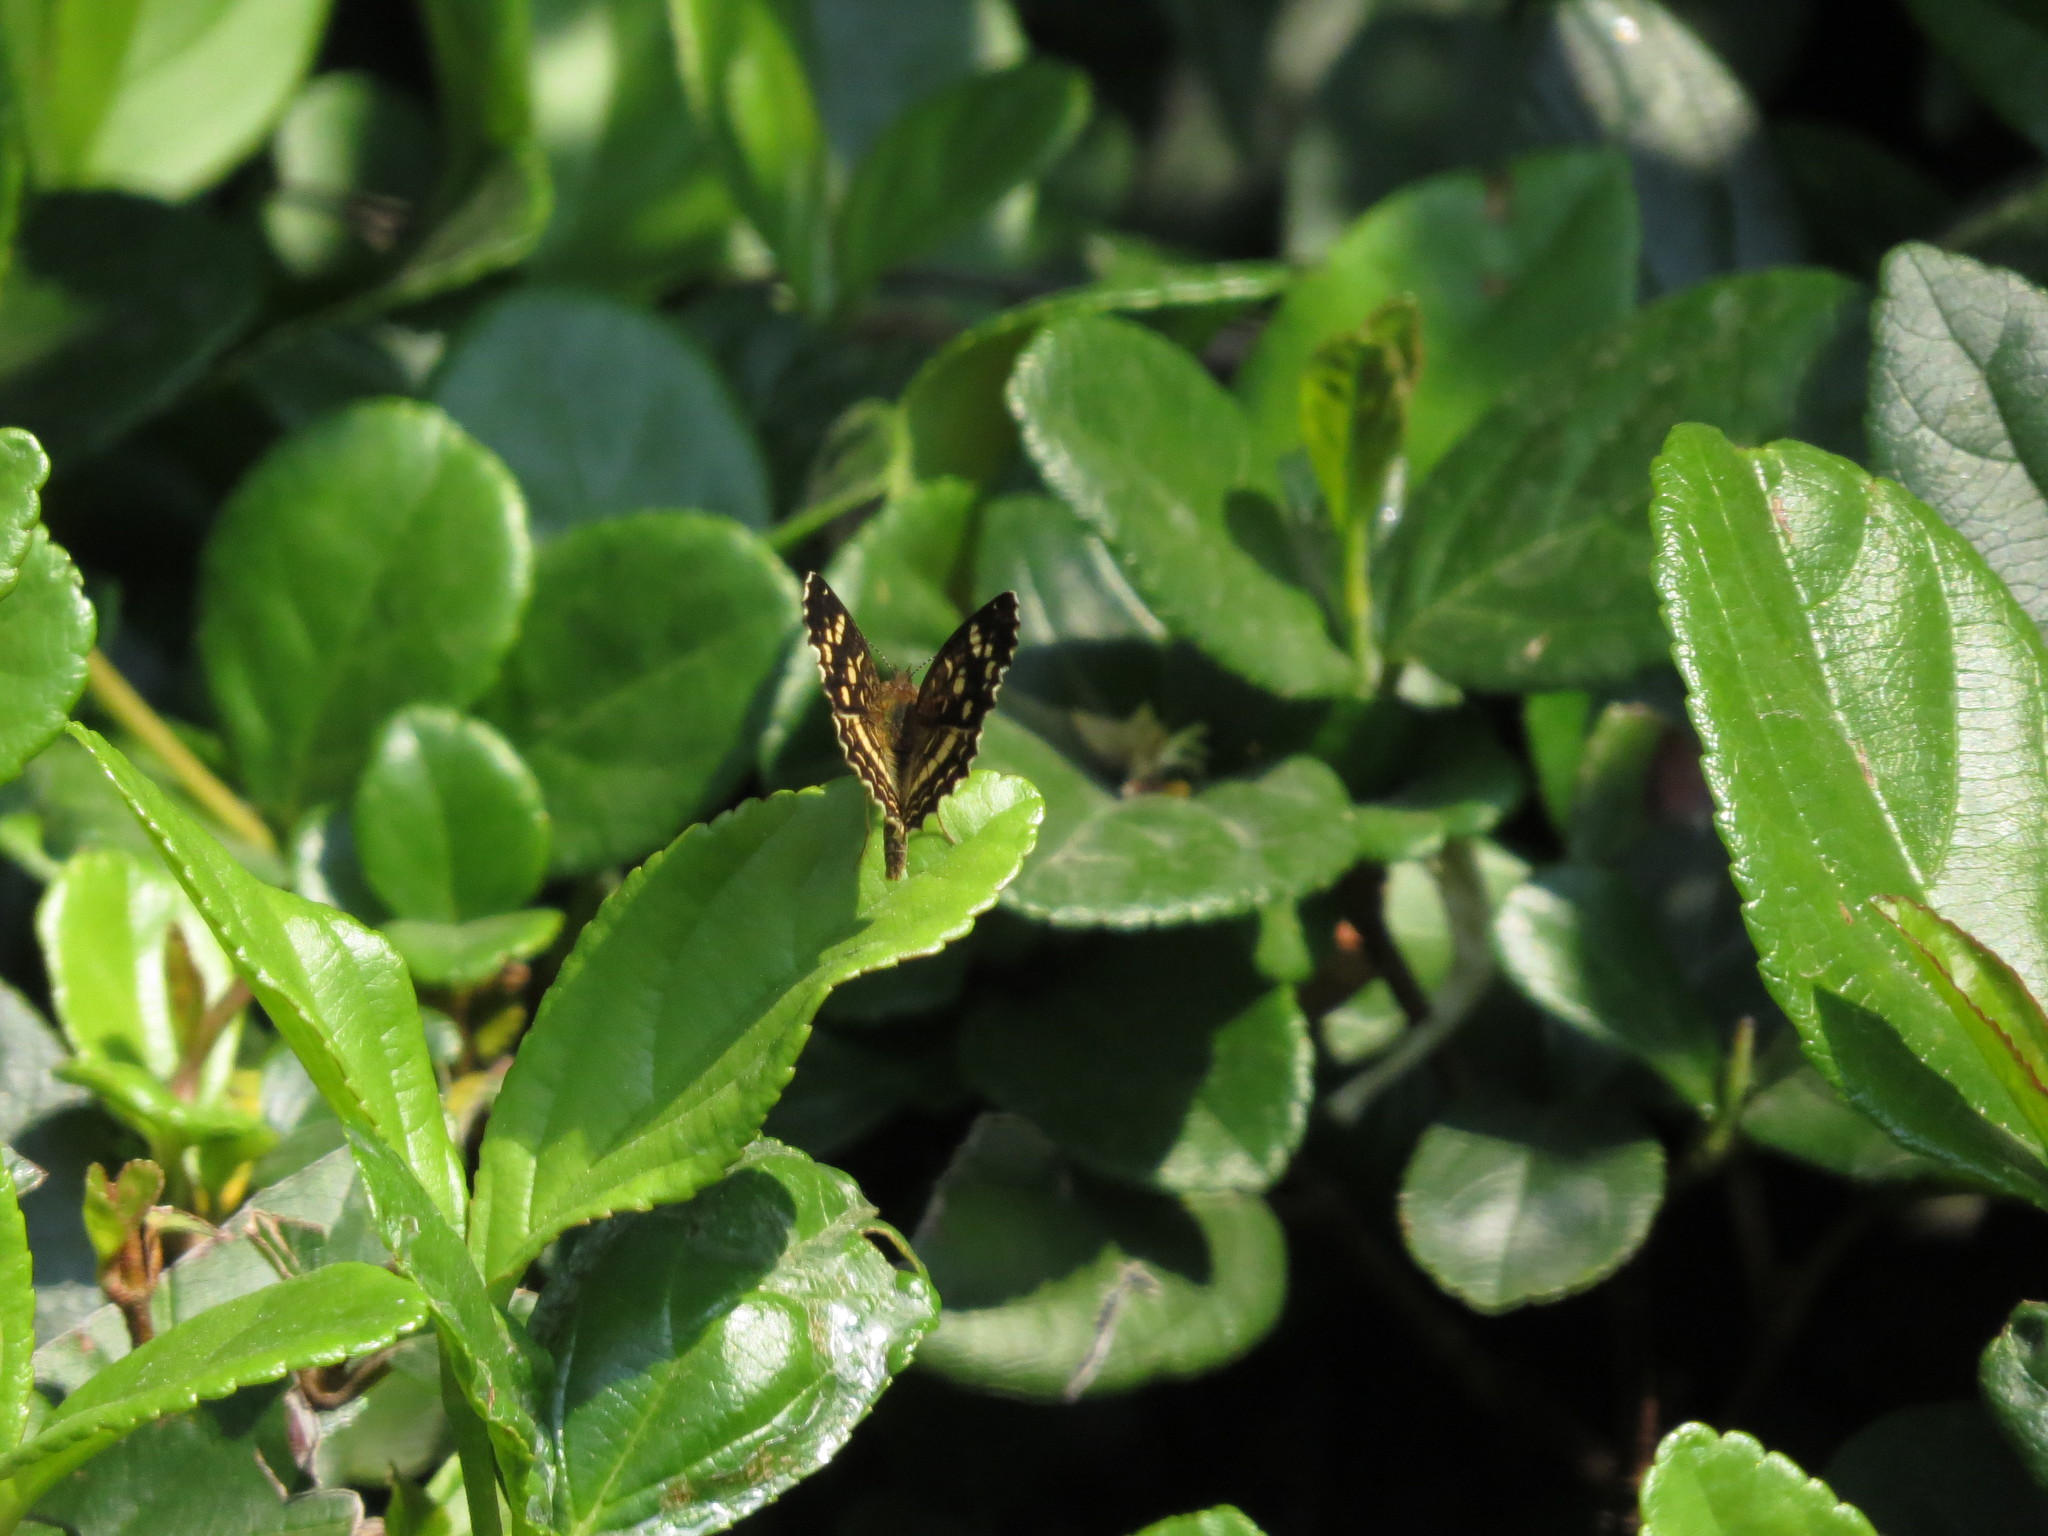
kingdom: Animalia
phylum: Arthropoda
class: Insecta
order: Lepidoptera
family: Nymphalidae
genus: Anthanassa
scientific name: Anthanassa tulcis
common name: Pale-banded crescent
